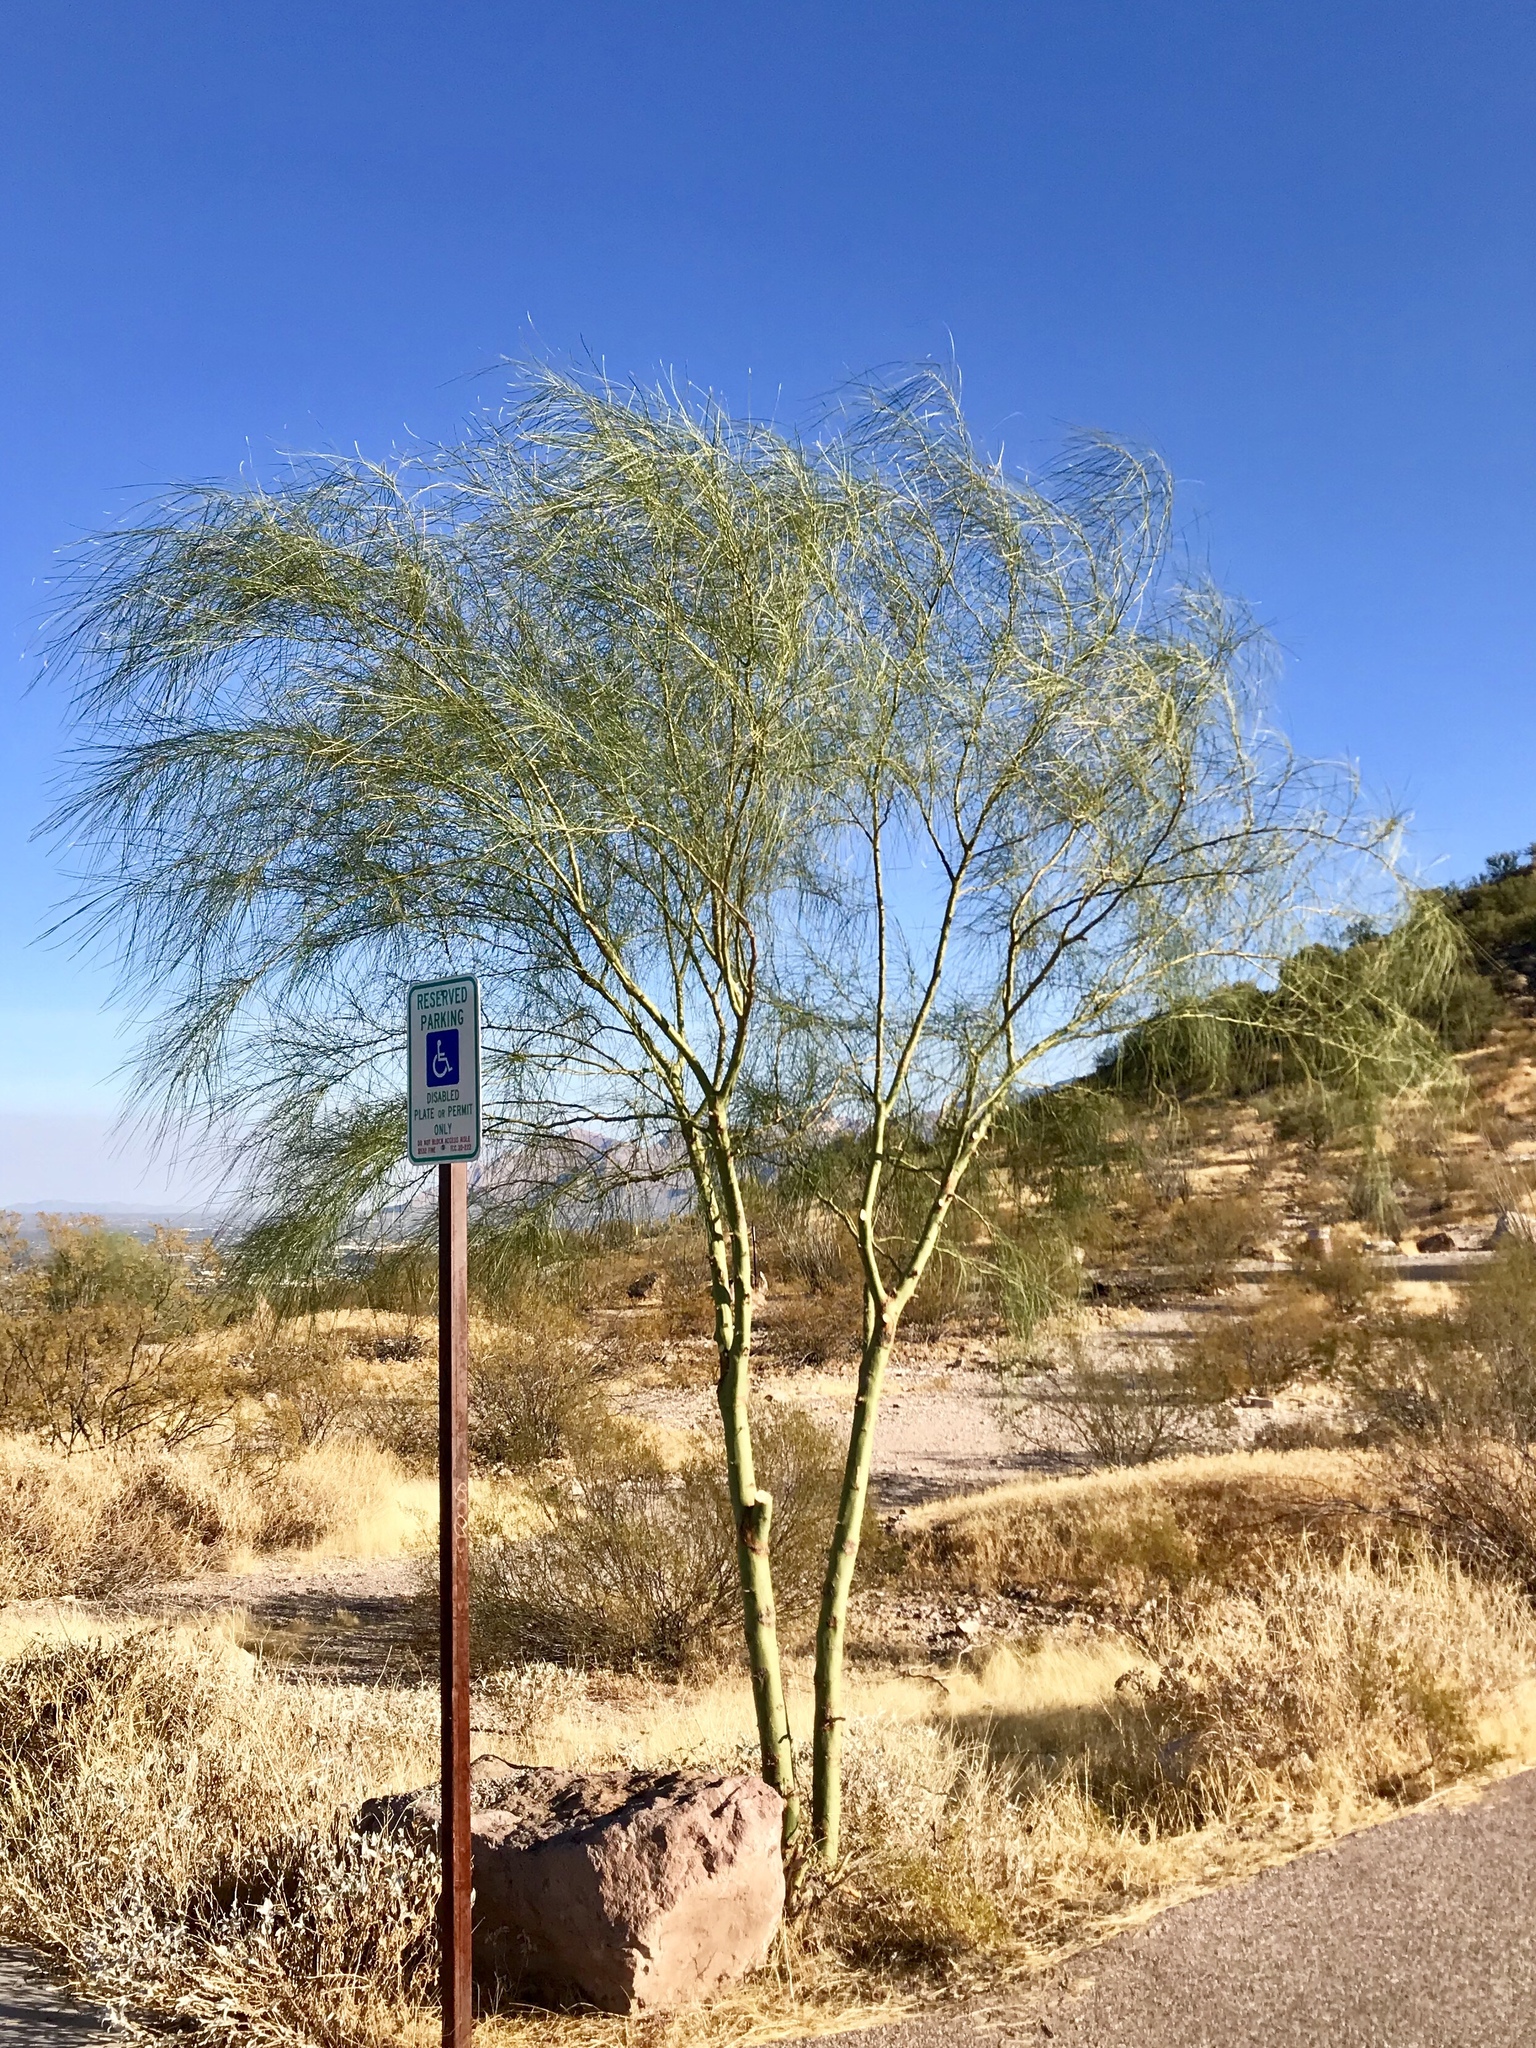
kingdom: Plantae
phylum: Tracheophyta
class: Magnoliopsida
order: Fabales
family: Fabaceae
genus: Parkinsonia
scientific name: Parkinsonia aculeata
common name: Jerusalem thorn
